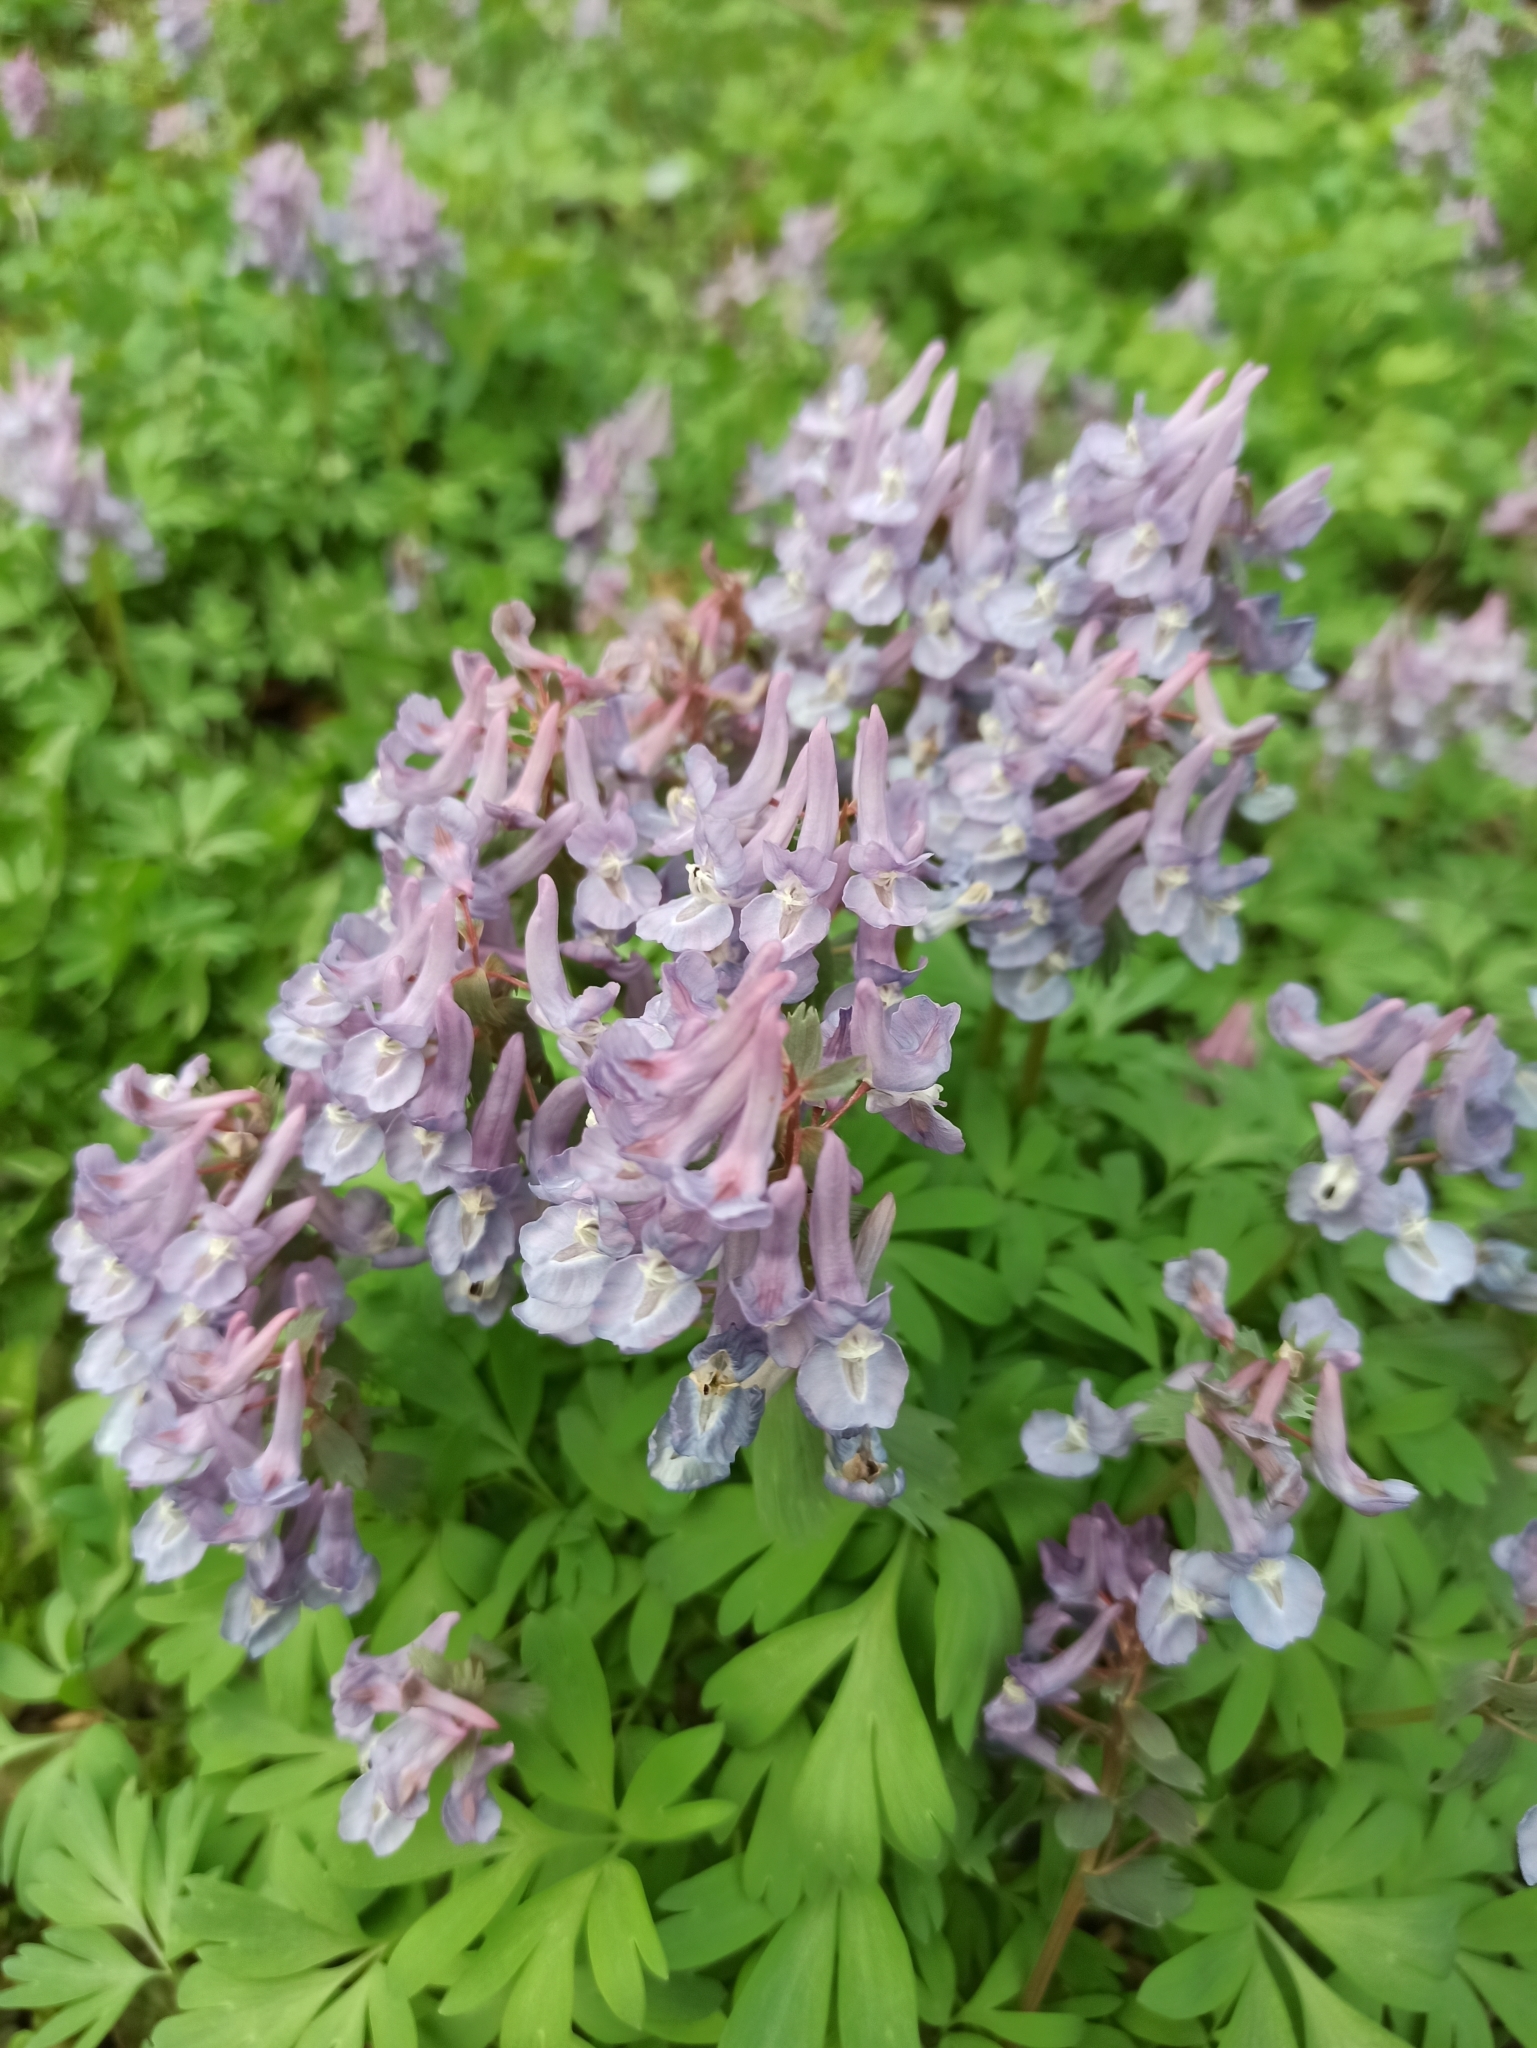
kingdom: Plantae
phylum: Tracheophyta
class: Magnoliopsida
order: Ranunculales
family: Papaveraceae
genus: Corydalis
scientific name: Corydalis solida
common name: Bird-in-a-bush
